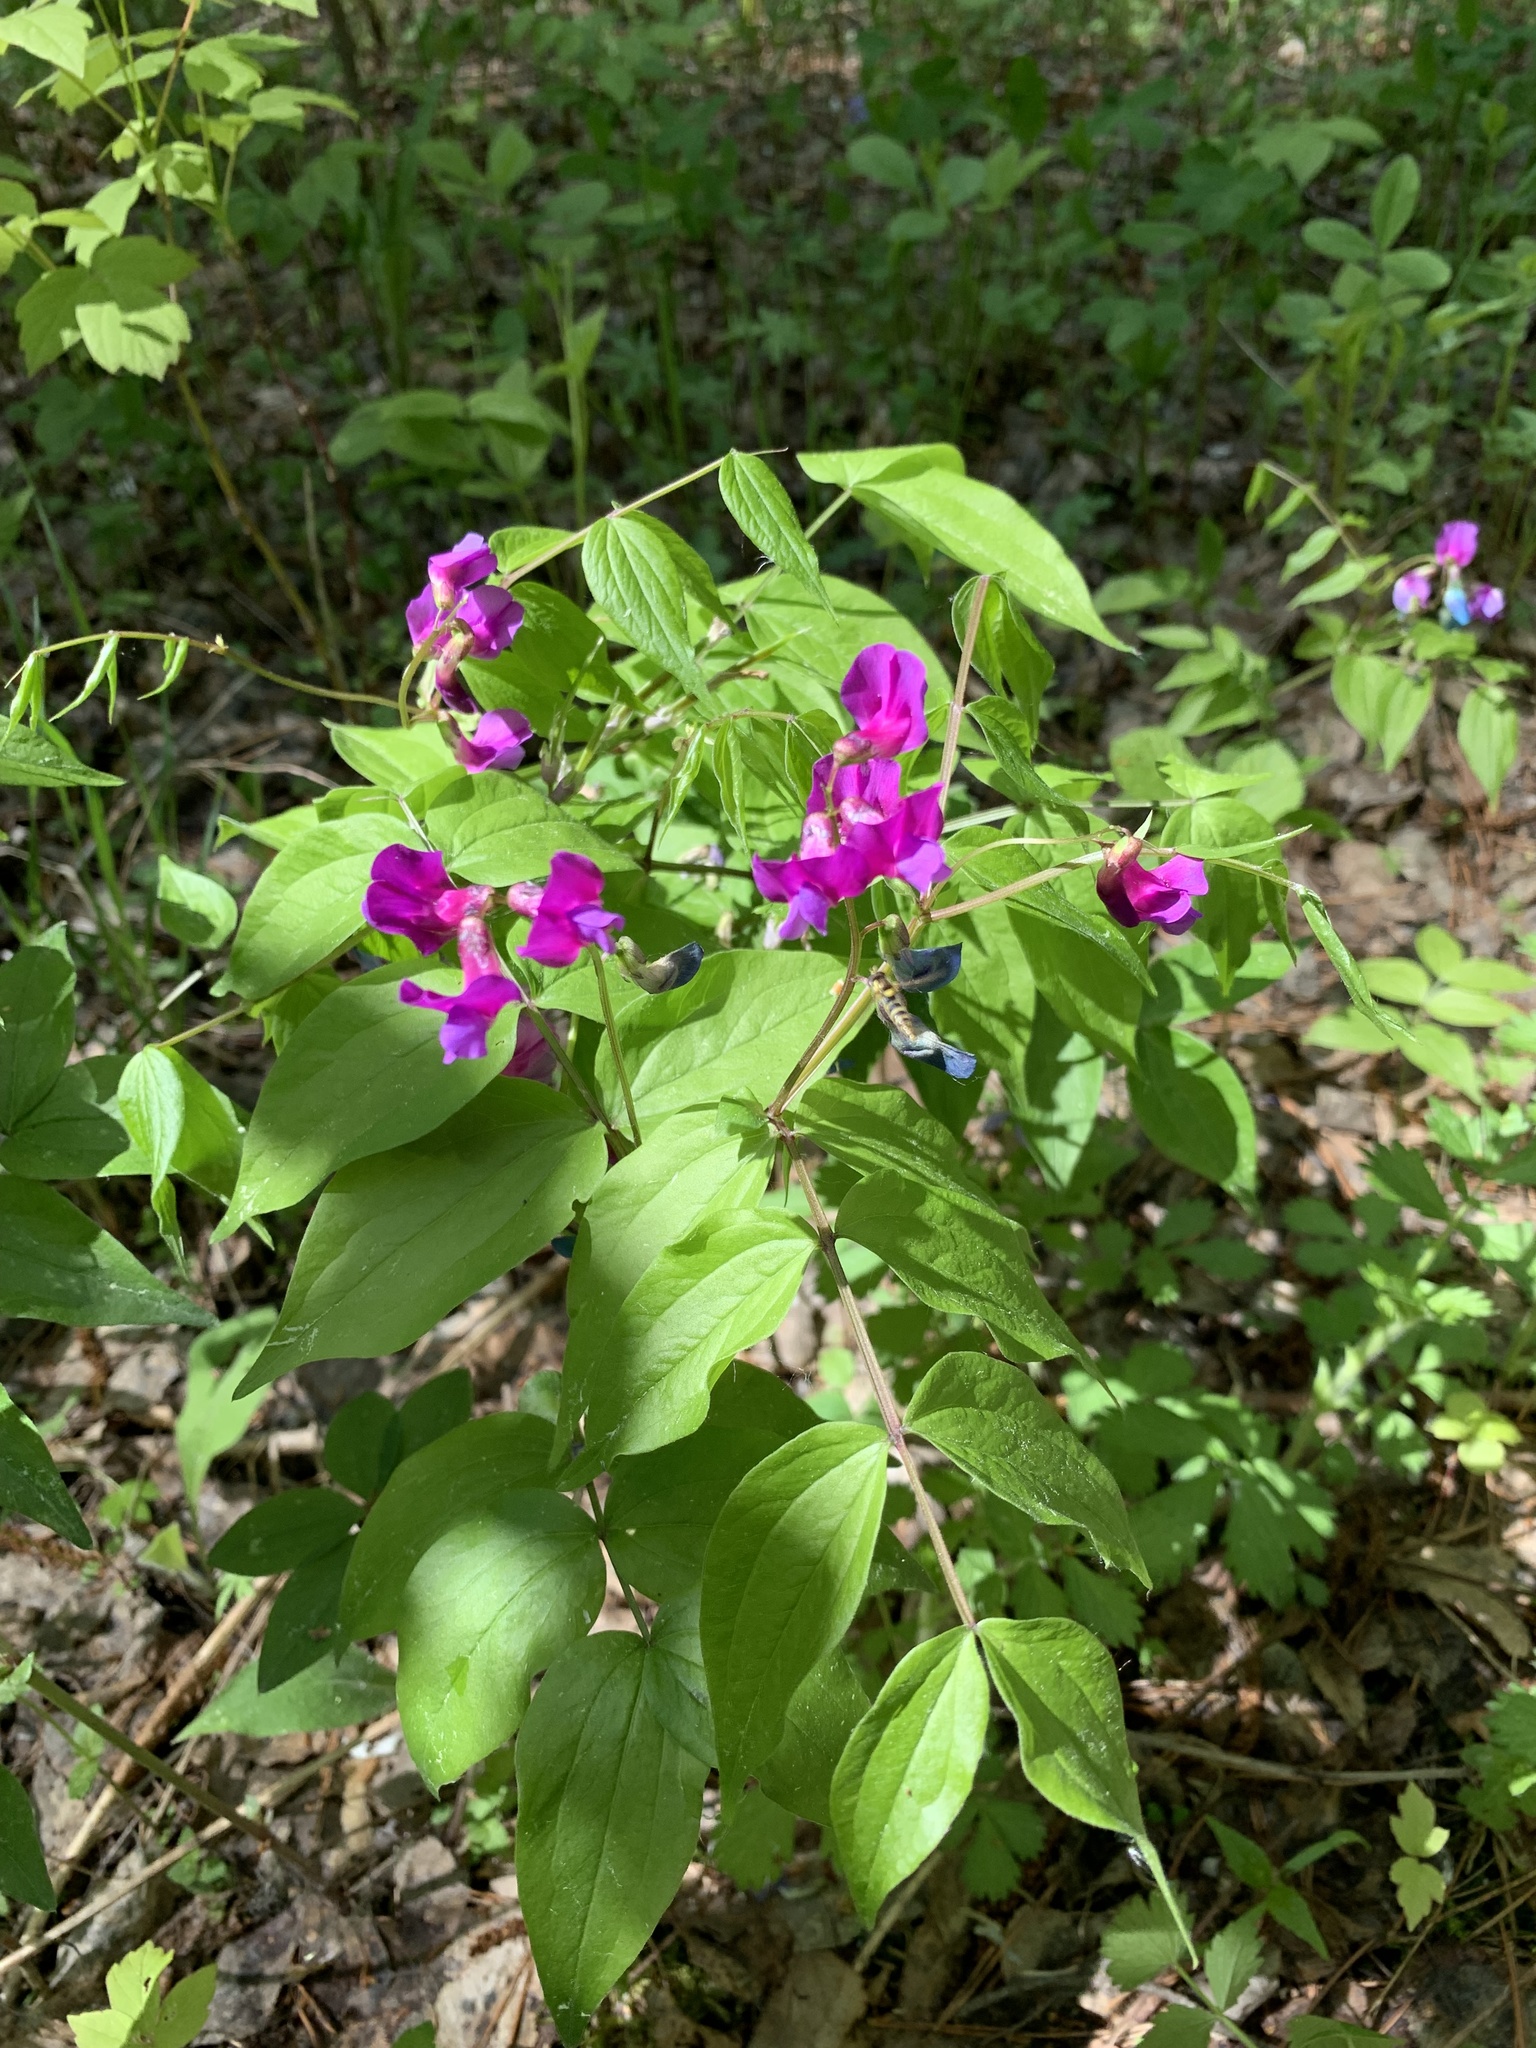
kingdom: Plantae
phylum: Tracheophyta
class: Magnoliopsida
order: Fabales
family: Fabaceae
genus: Lathyrus
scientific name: Lathyrus vernus
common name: Spring pea
